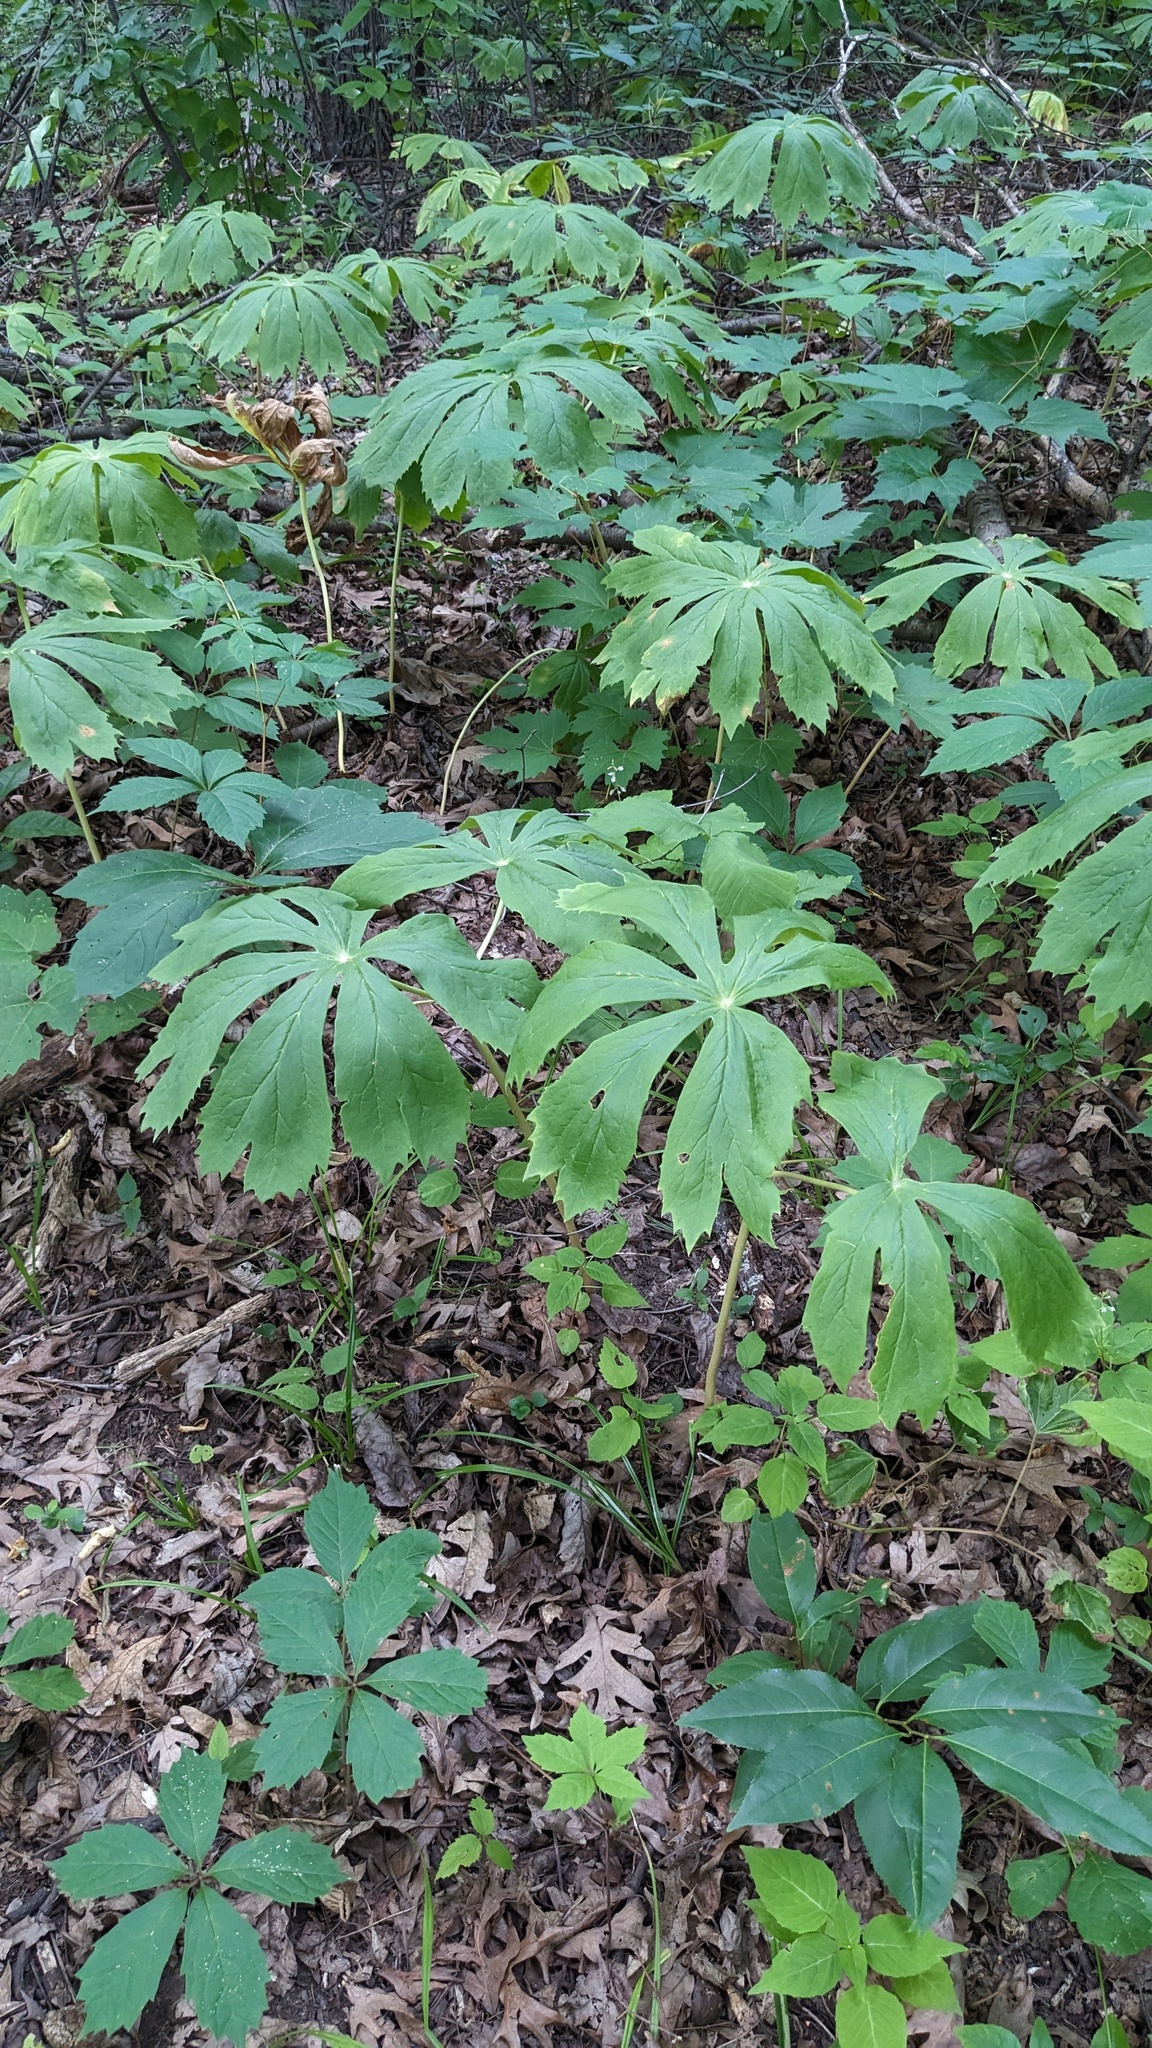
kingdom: Plantae
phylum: Tracheophyta
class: Magnoliopsida
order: Ranunculales
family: Berberidaceae
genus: Podophyllum
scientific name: Podophyllum peltatum
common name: Wild mandrake
